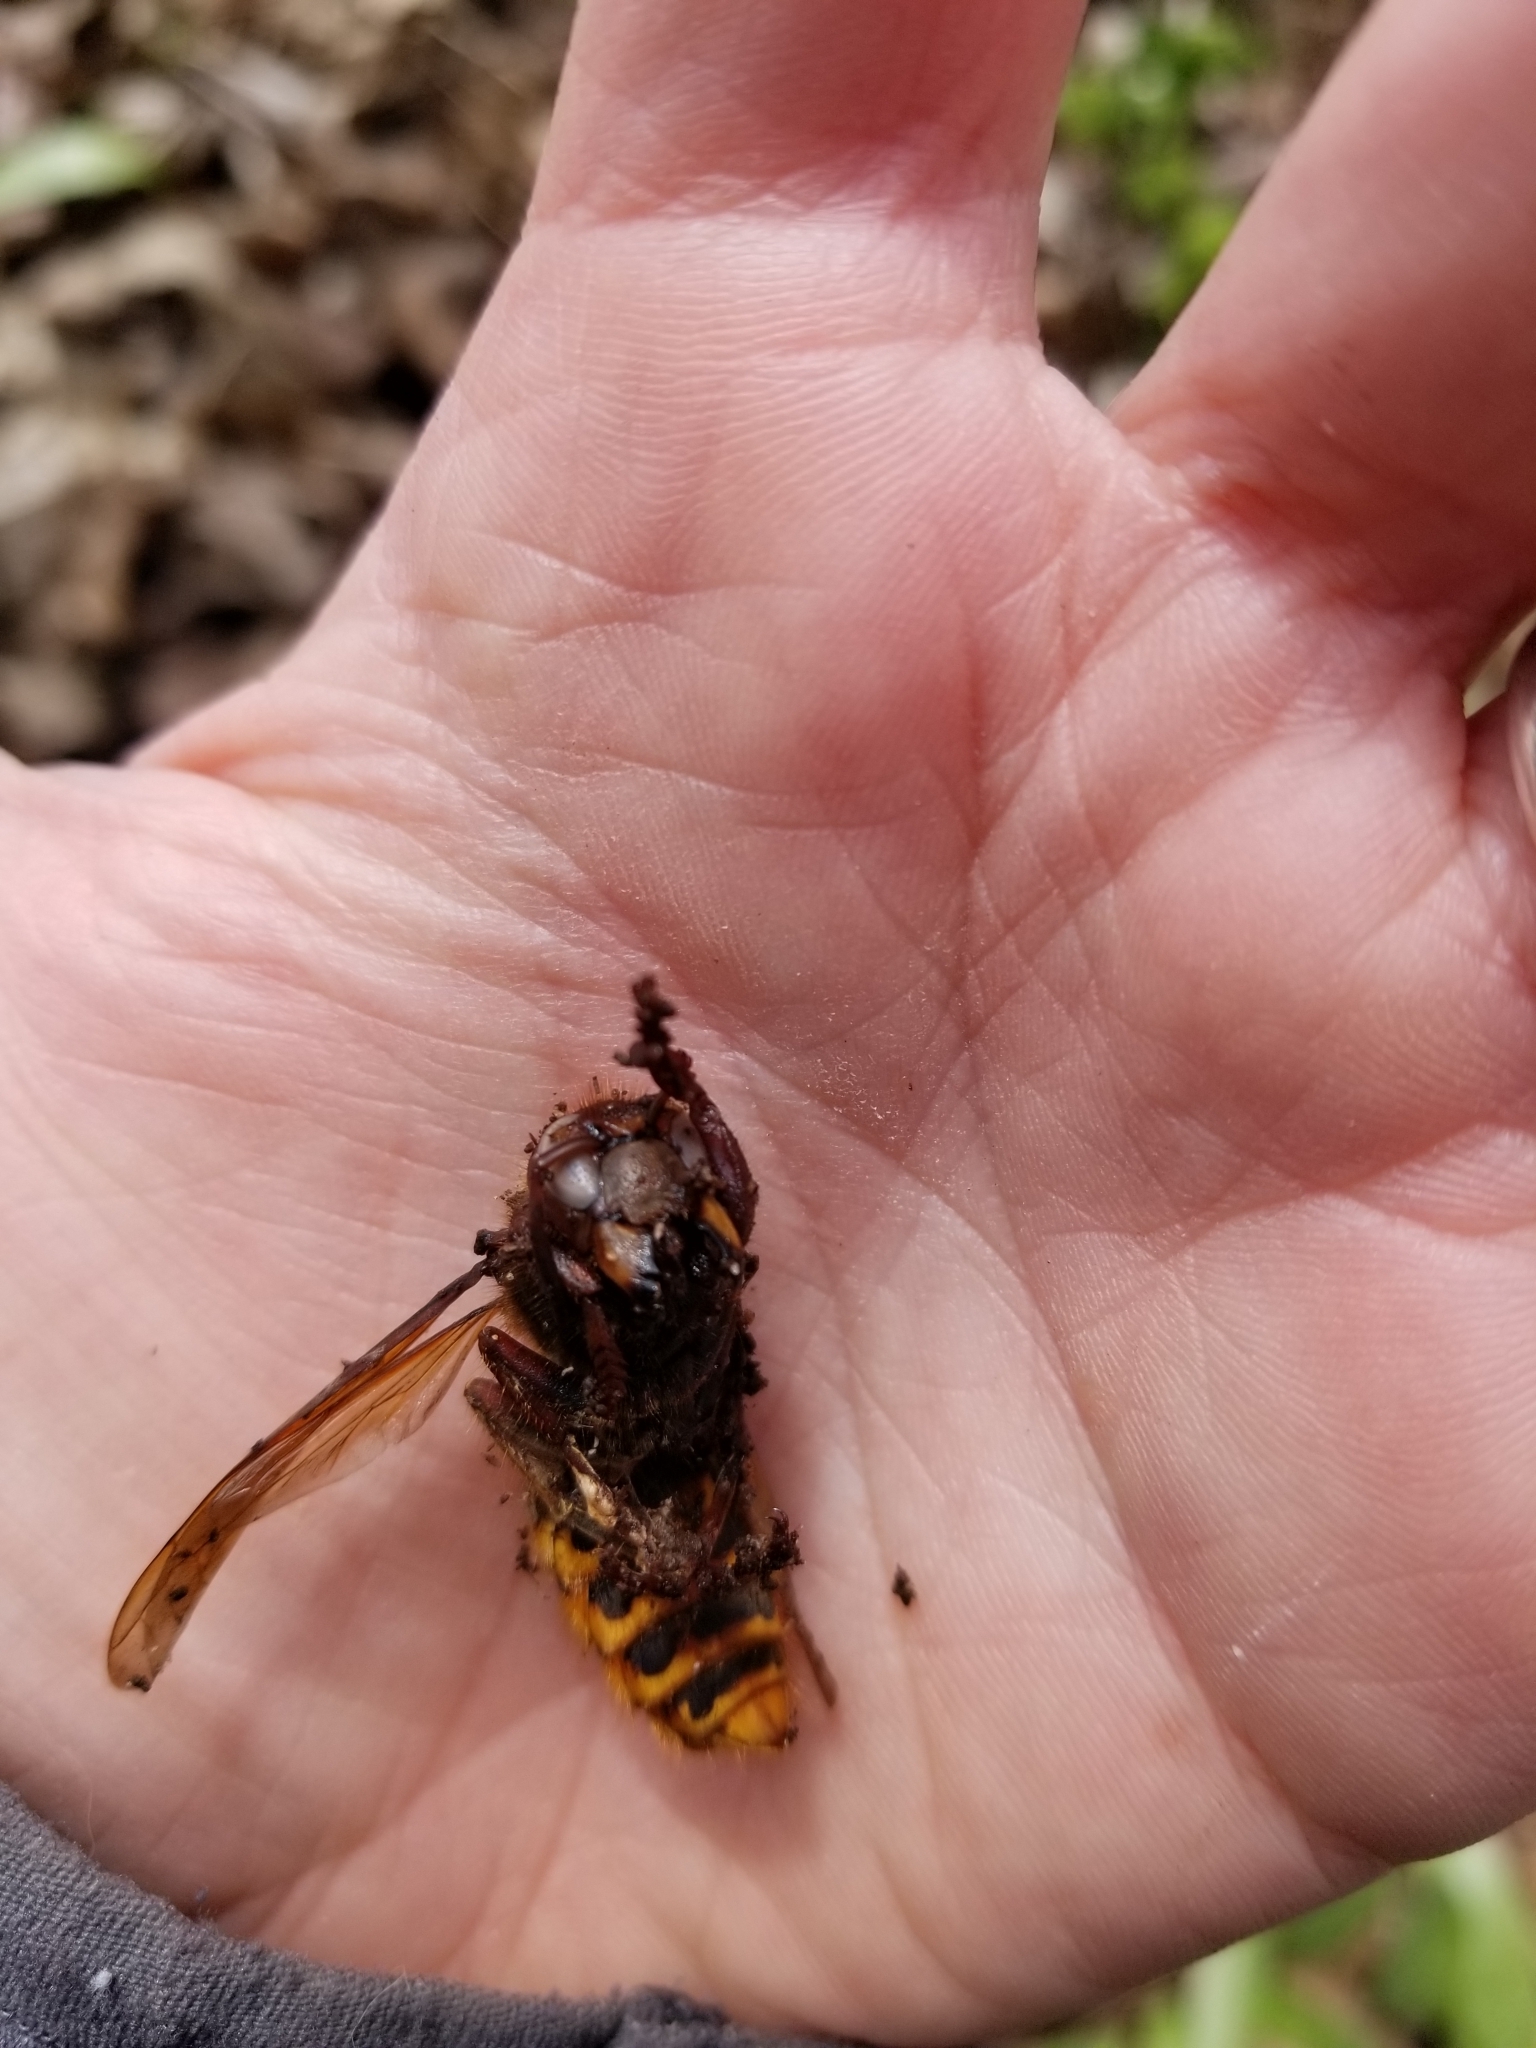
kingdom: Animalia
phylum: Arthropoda
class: Insecta
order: Hymenoptera
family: Vespidae
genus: Vespa
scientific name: Vespa crabro
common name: Hornet
